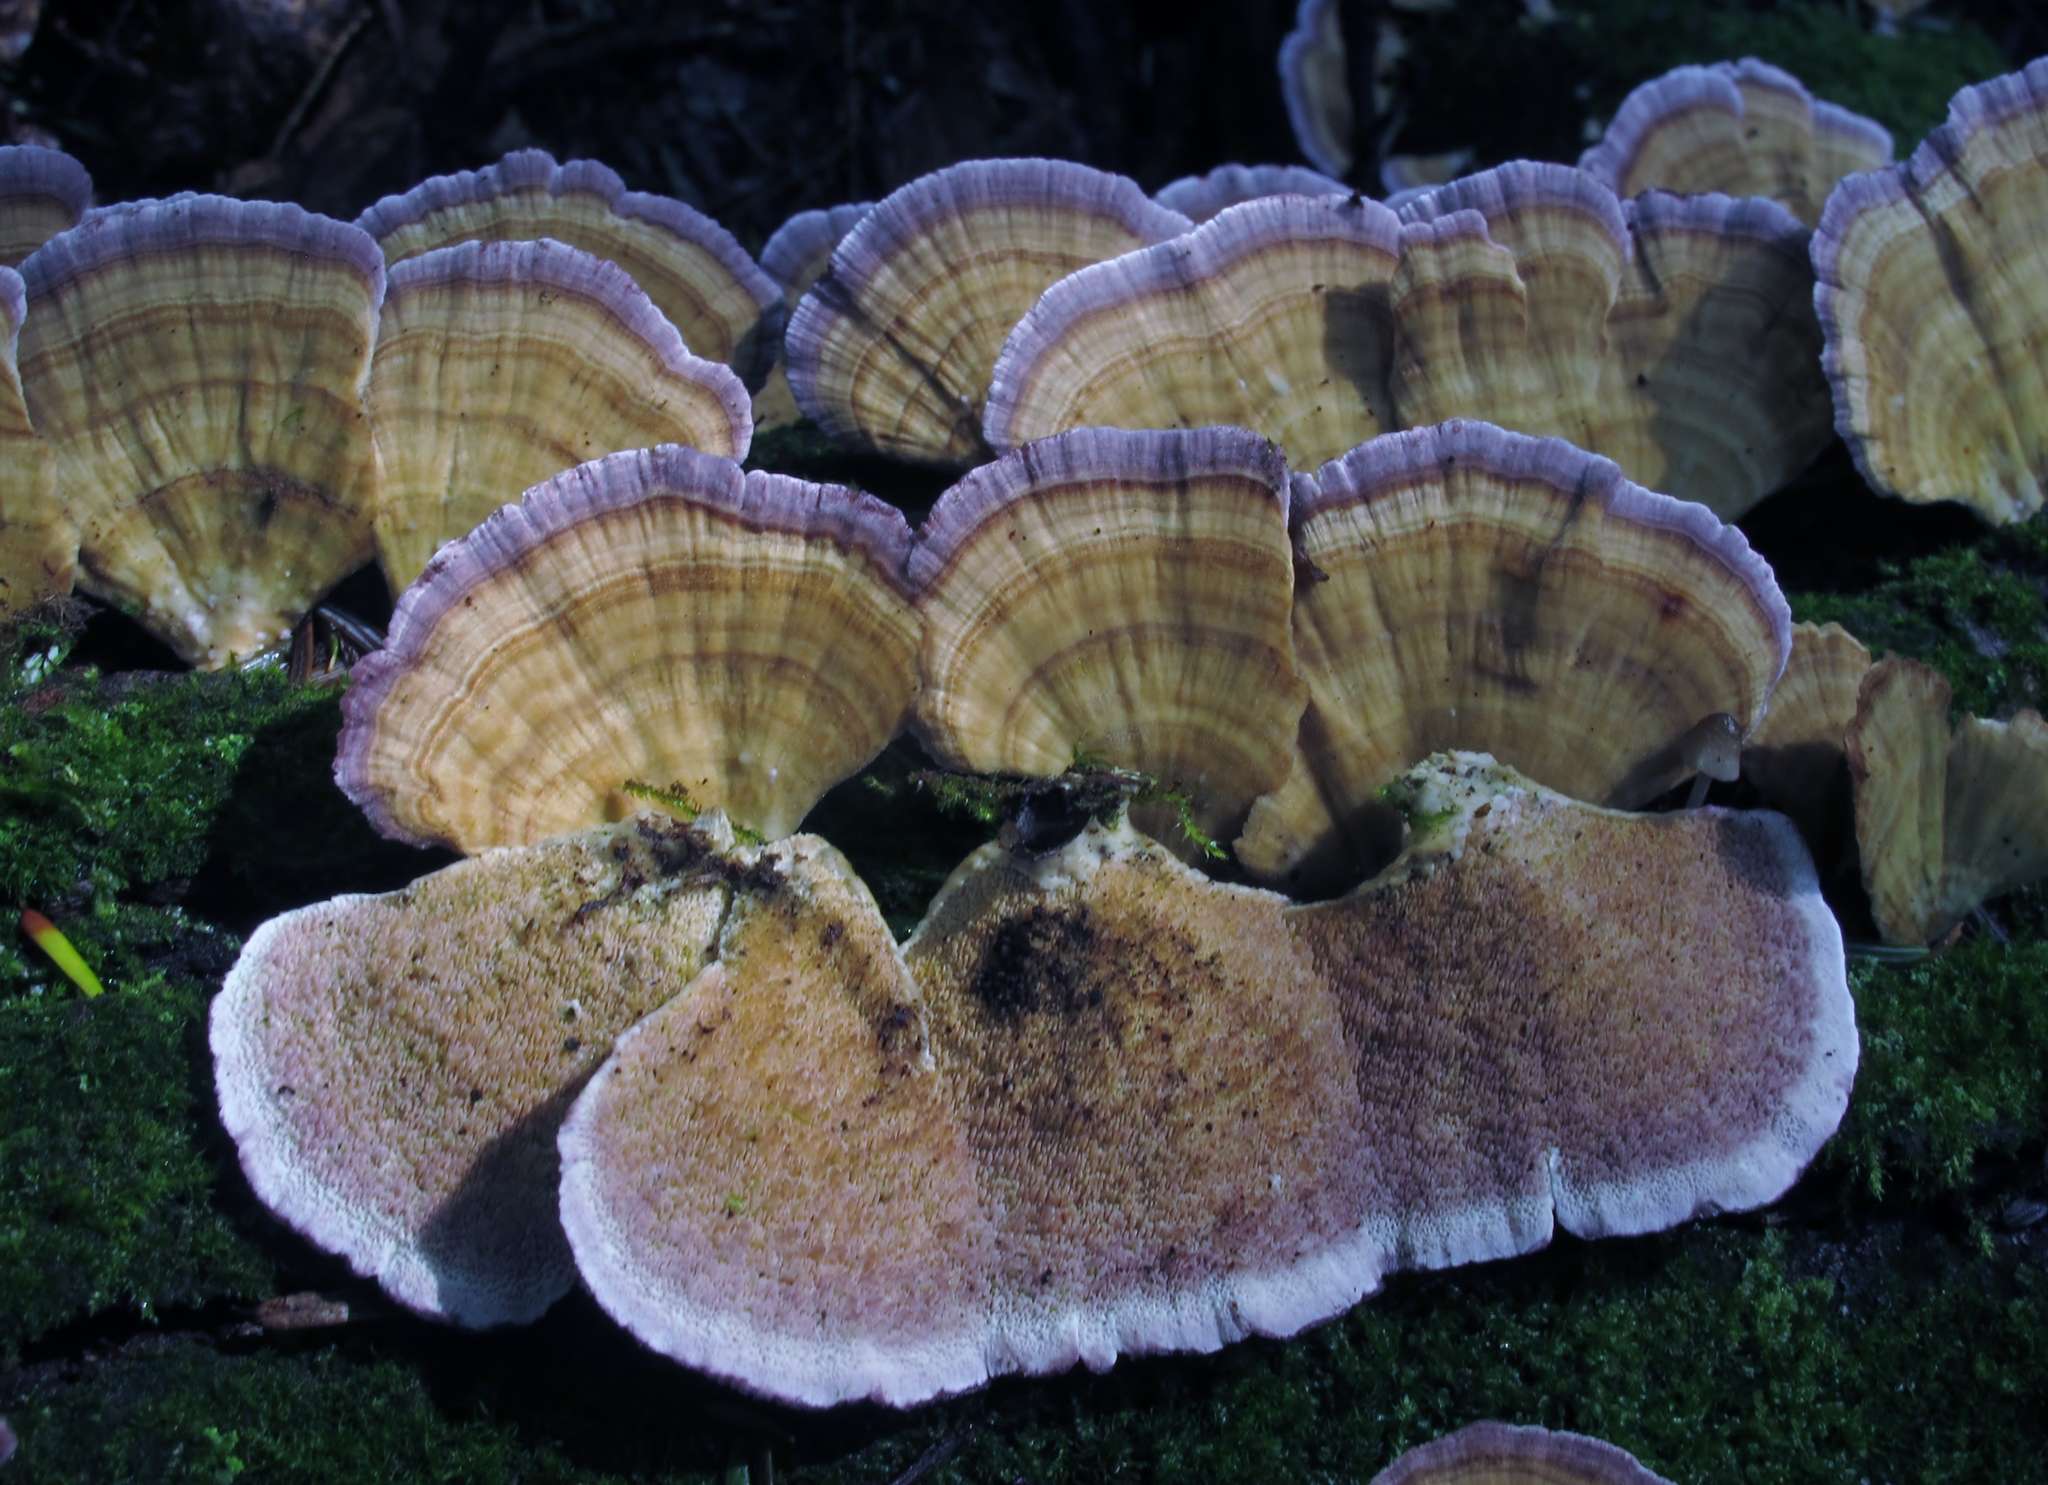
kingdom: Fungi
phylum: Basidiomycota
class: Agaricomycetes
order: Hymenochaetales
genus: Trichaptum
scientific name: Trichaptum biforme
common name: Violet-toothed polypore
